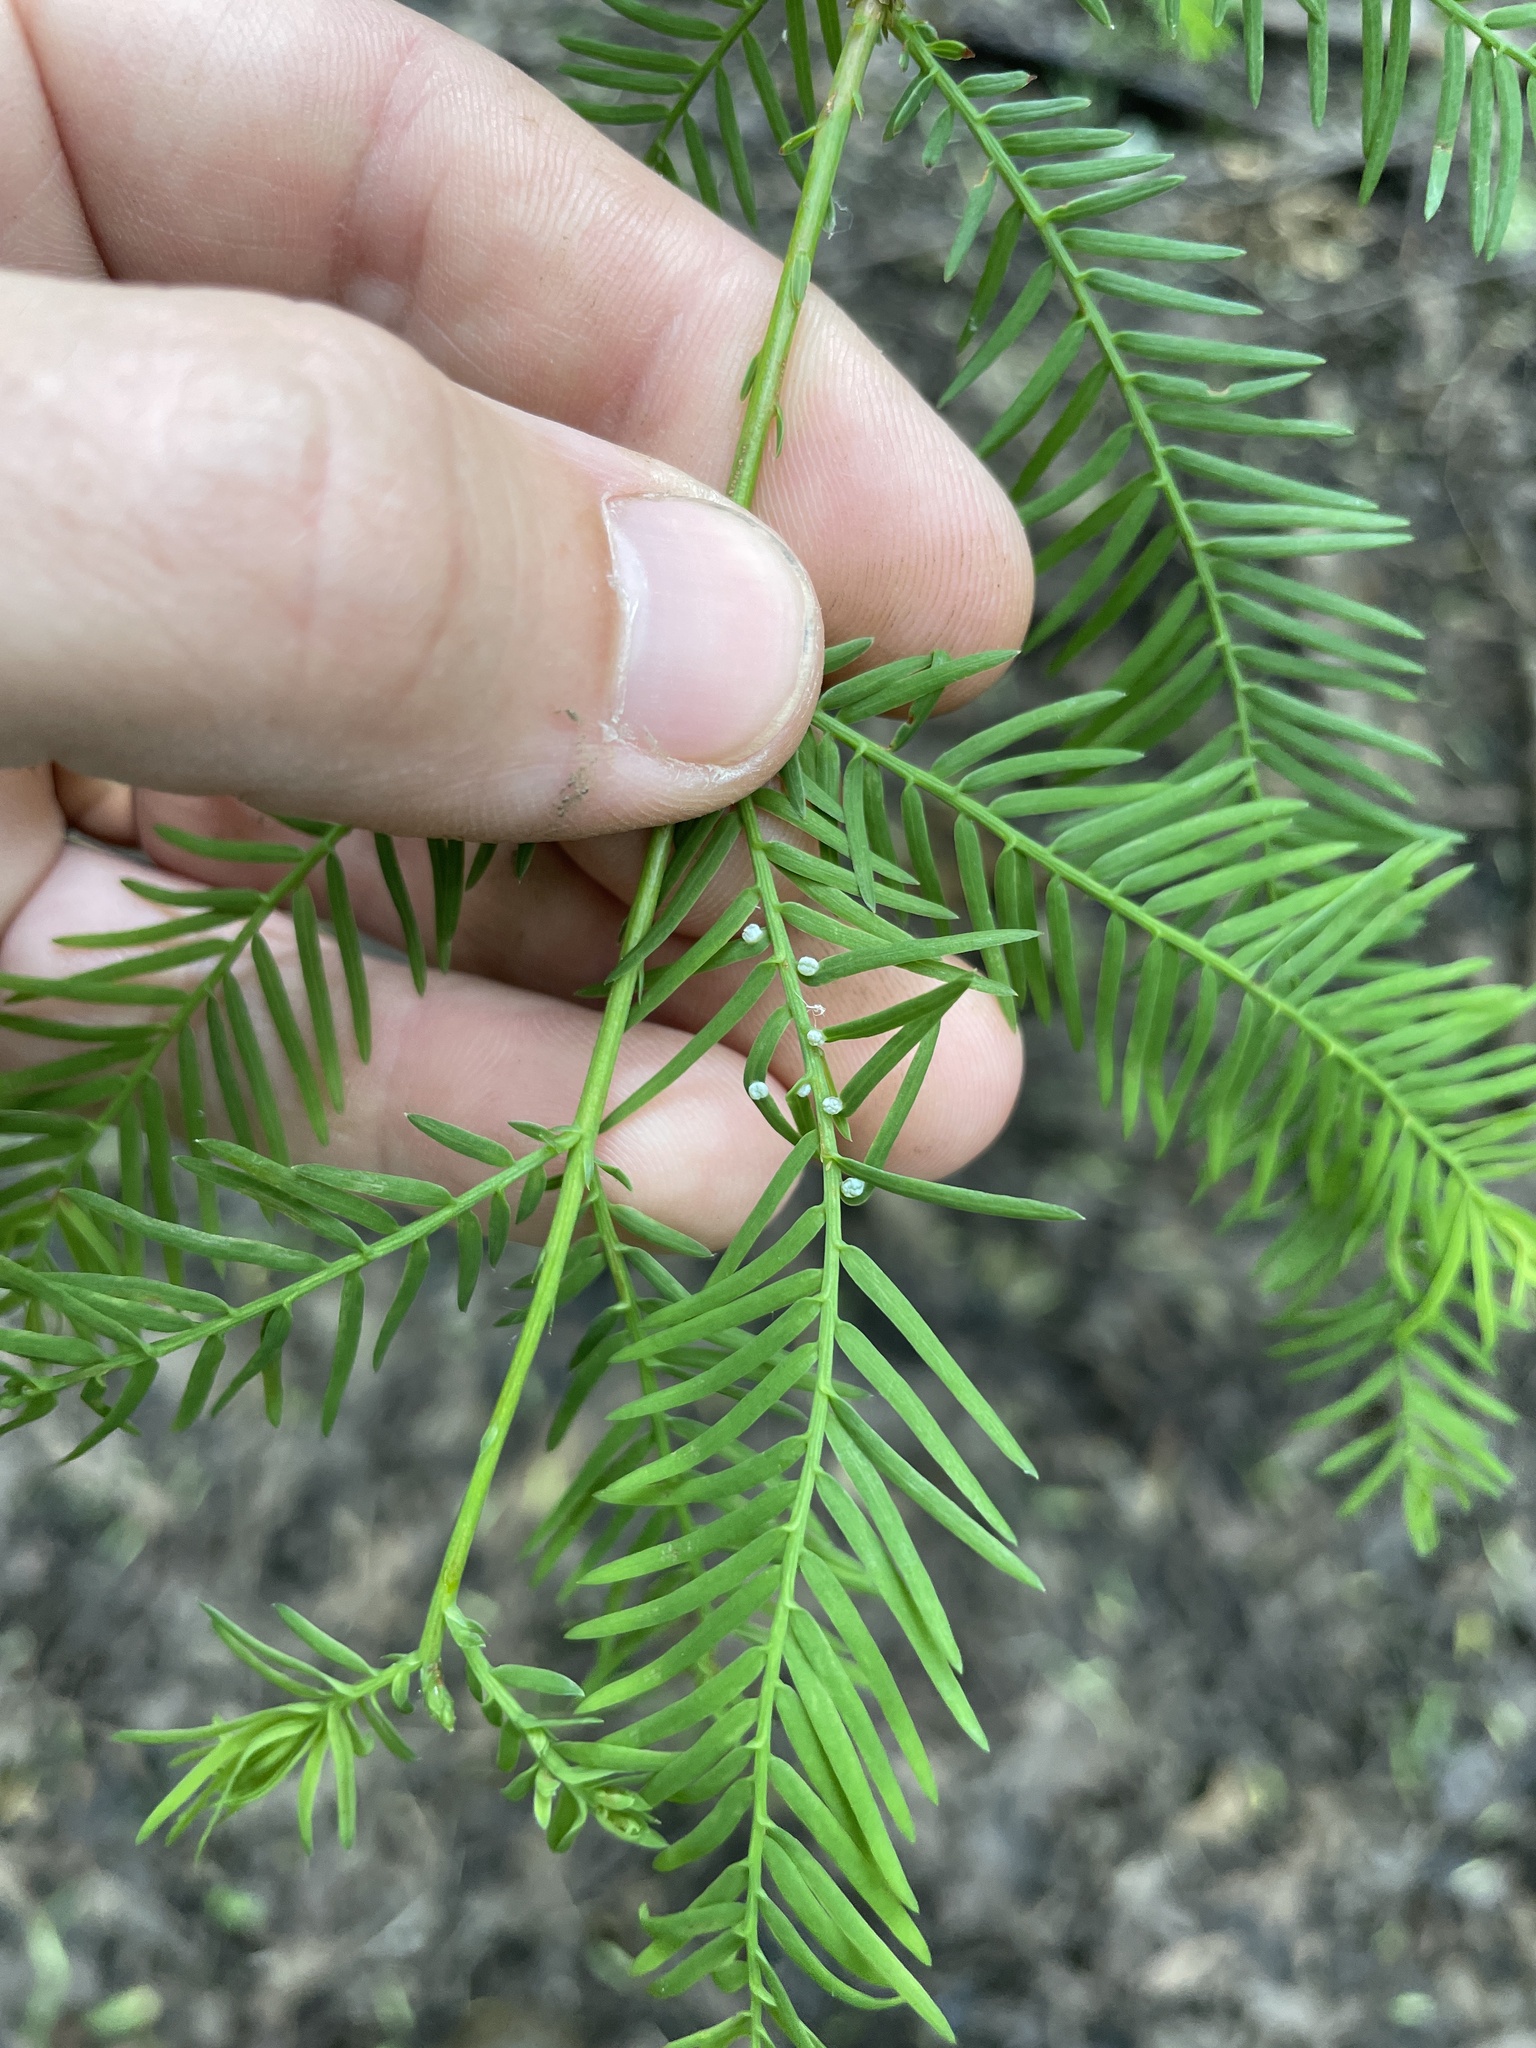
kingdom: Animalia
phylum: Arthropoda
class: Insecta
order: Diptera
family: Cecidomyiidae
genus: Taxodiomyia
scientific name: Taxodiomyia cupressi
